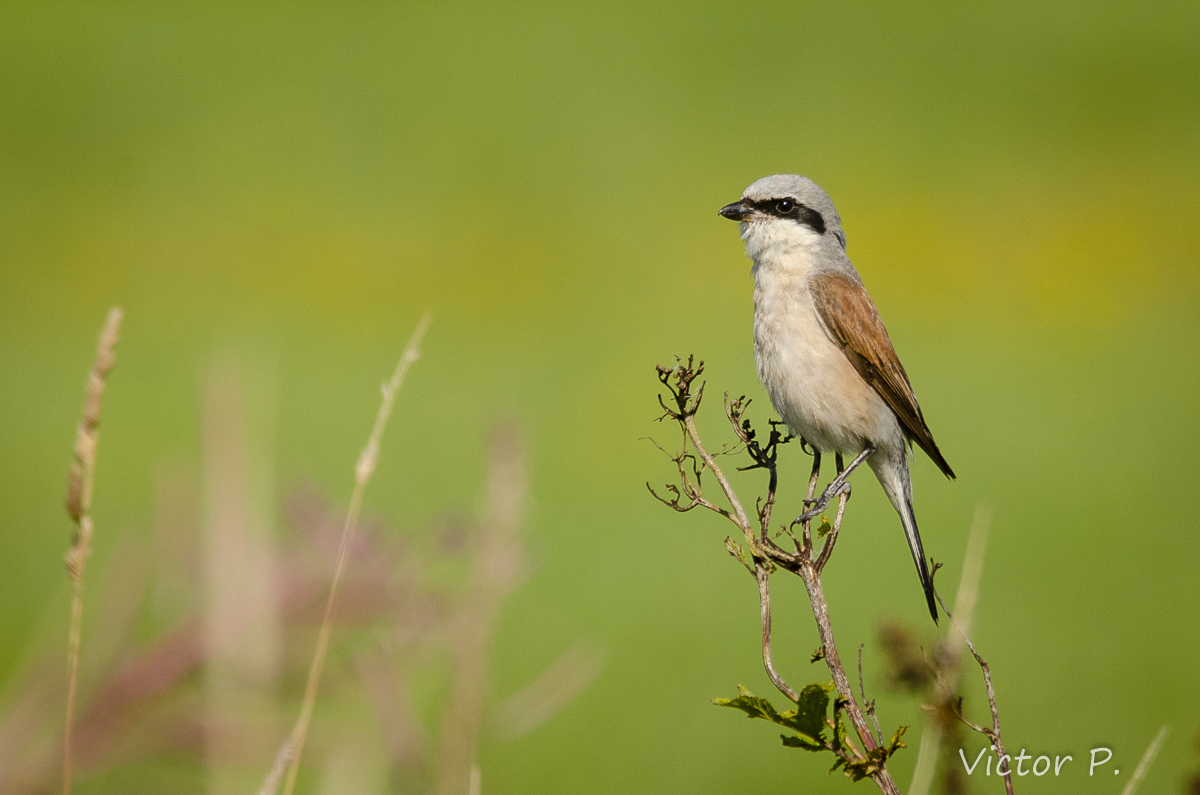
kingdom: Animalia
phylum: Chordata
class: Aves
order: Passeriformes
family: Laniidae
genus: Lanius
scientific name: Lanius collurio
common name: Red-backed shrike
